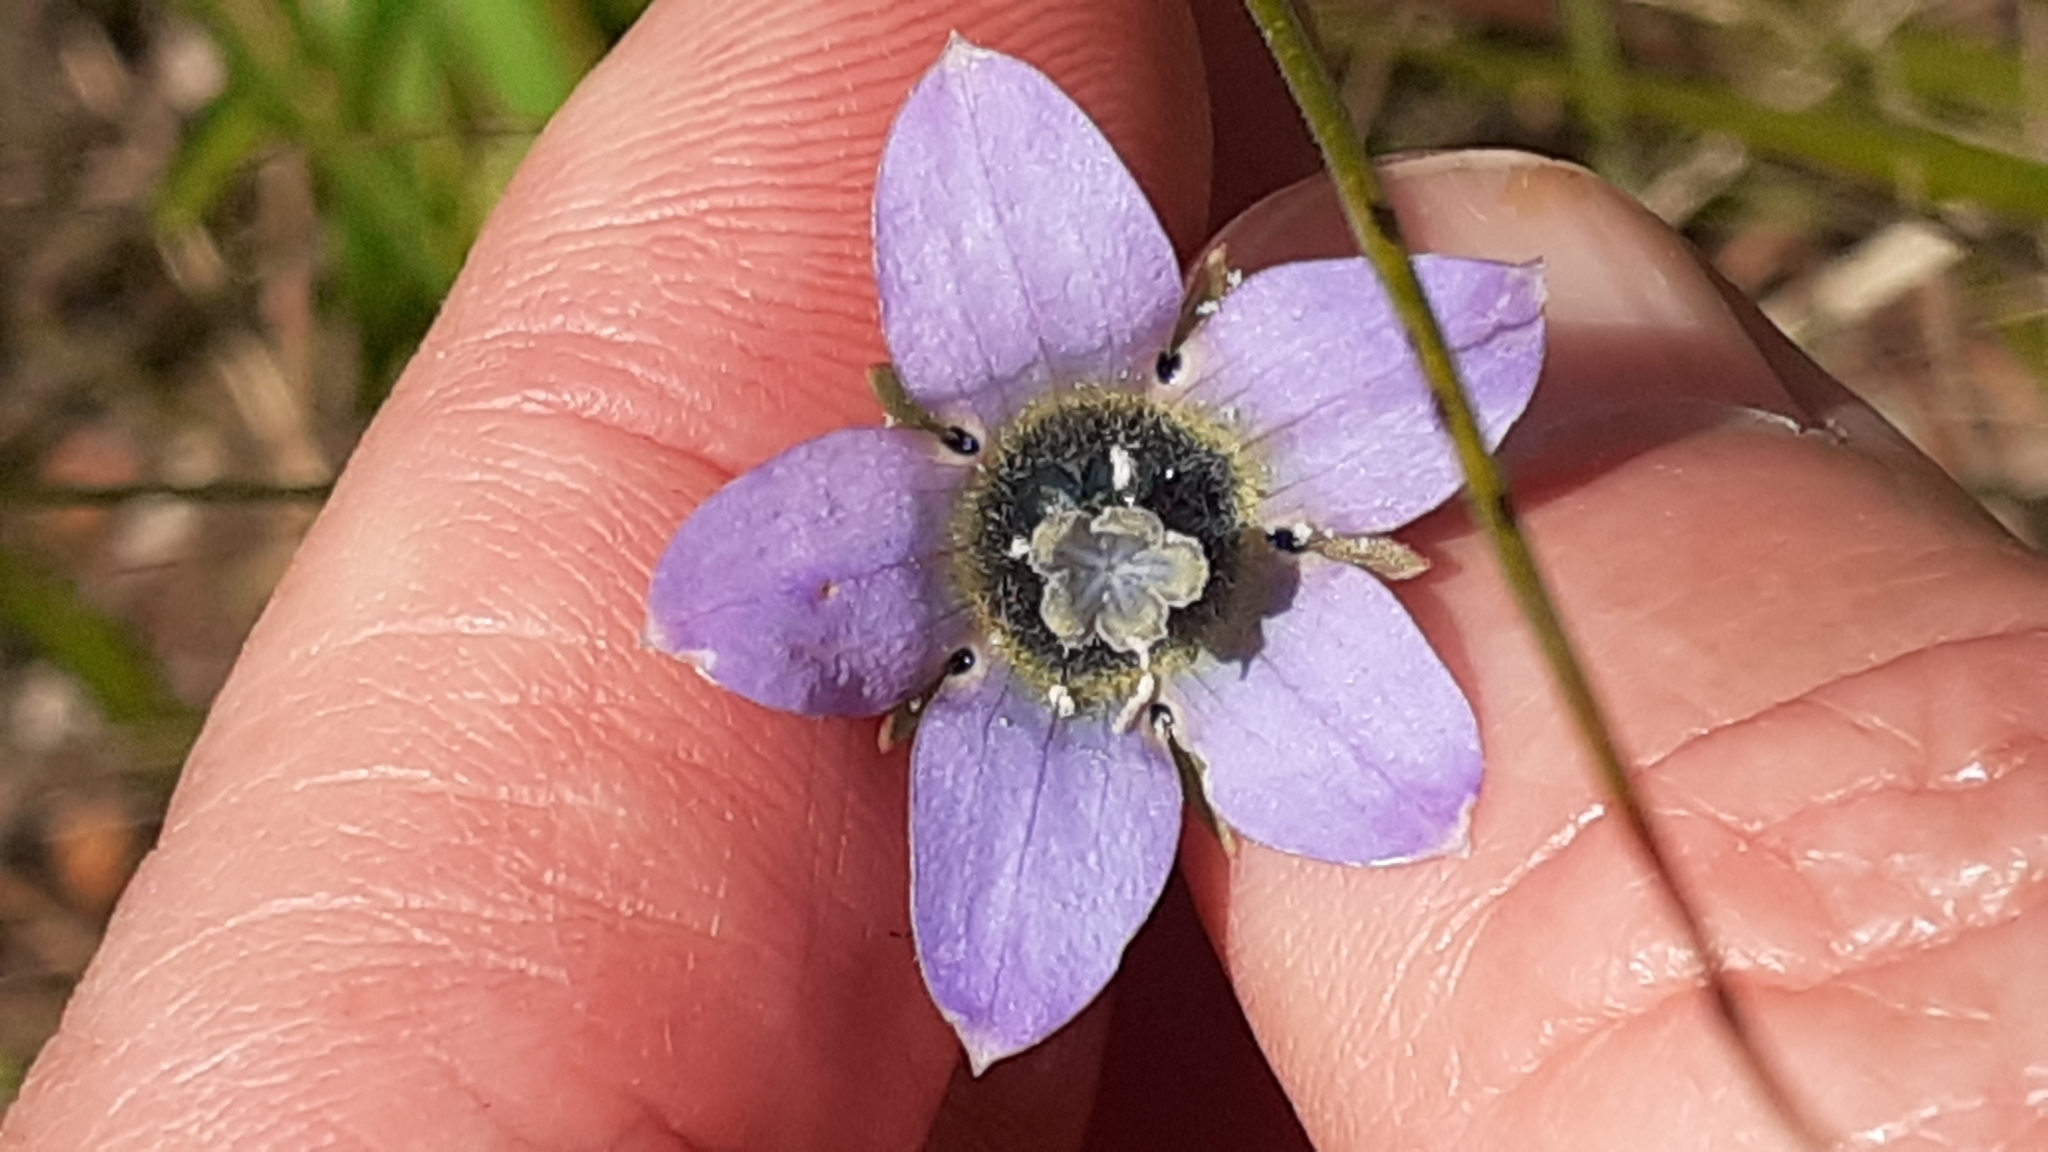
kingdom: Plantae
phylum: Tracheophyta
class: Magnoliopsida
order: Asterales
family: Campanulaceae
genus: Wahlenbergia
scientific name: Wahlenbergia capensis
